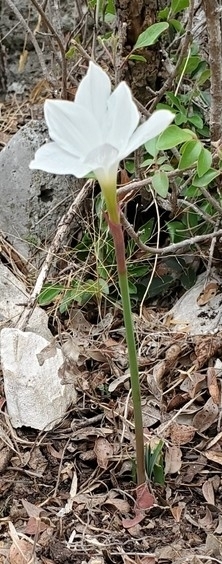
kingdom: Plantae
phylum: Tracheophyta
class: Liliopsida
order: Asparagales
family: Amaryllidaceae
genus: Zephyranthes
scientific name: Zephyranthes drummondii
